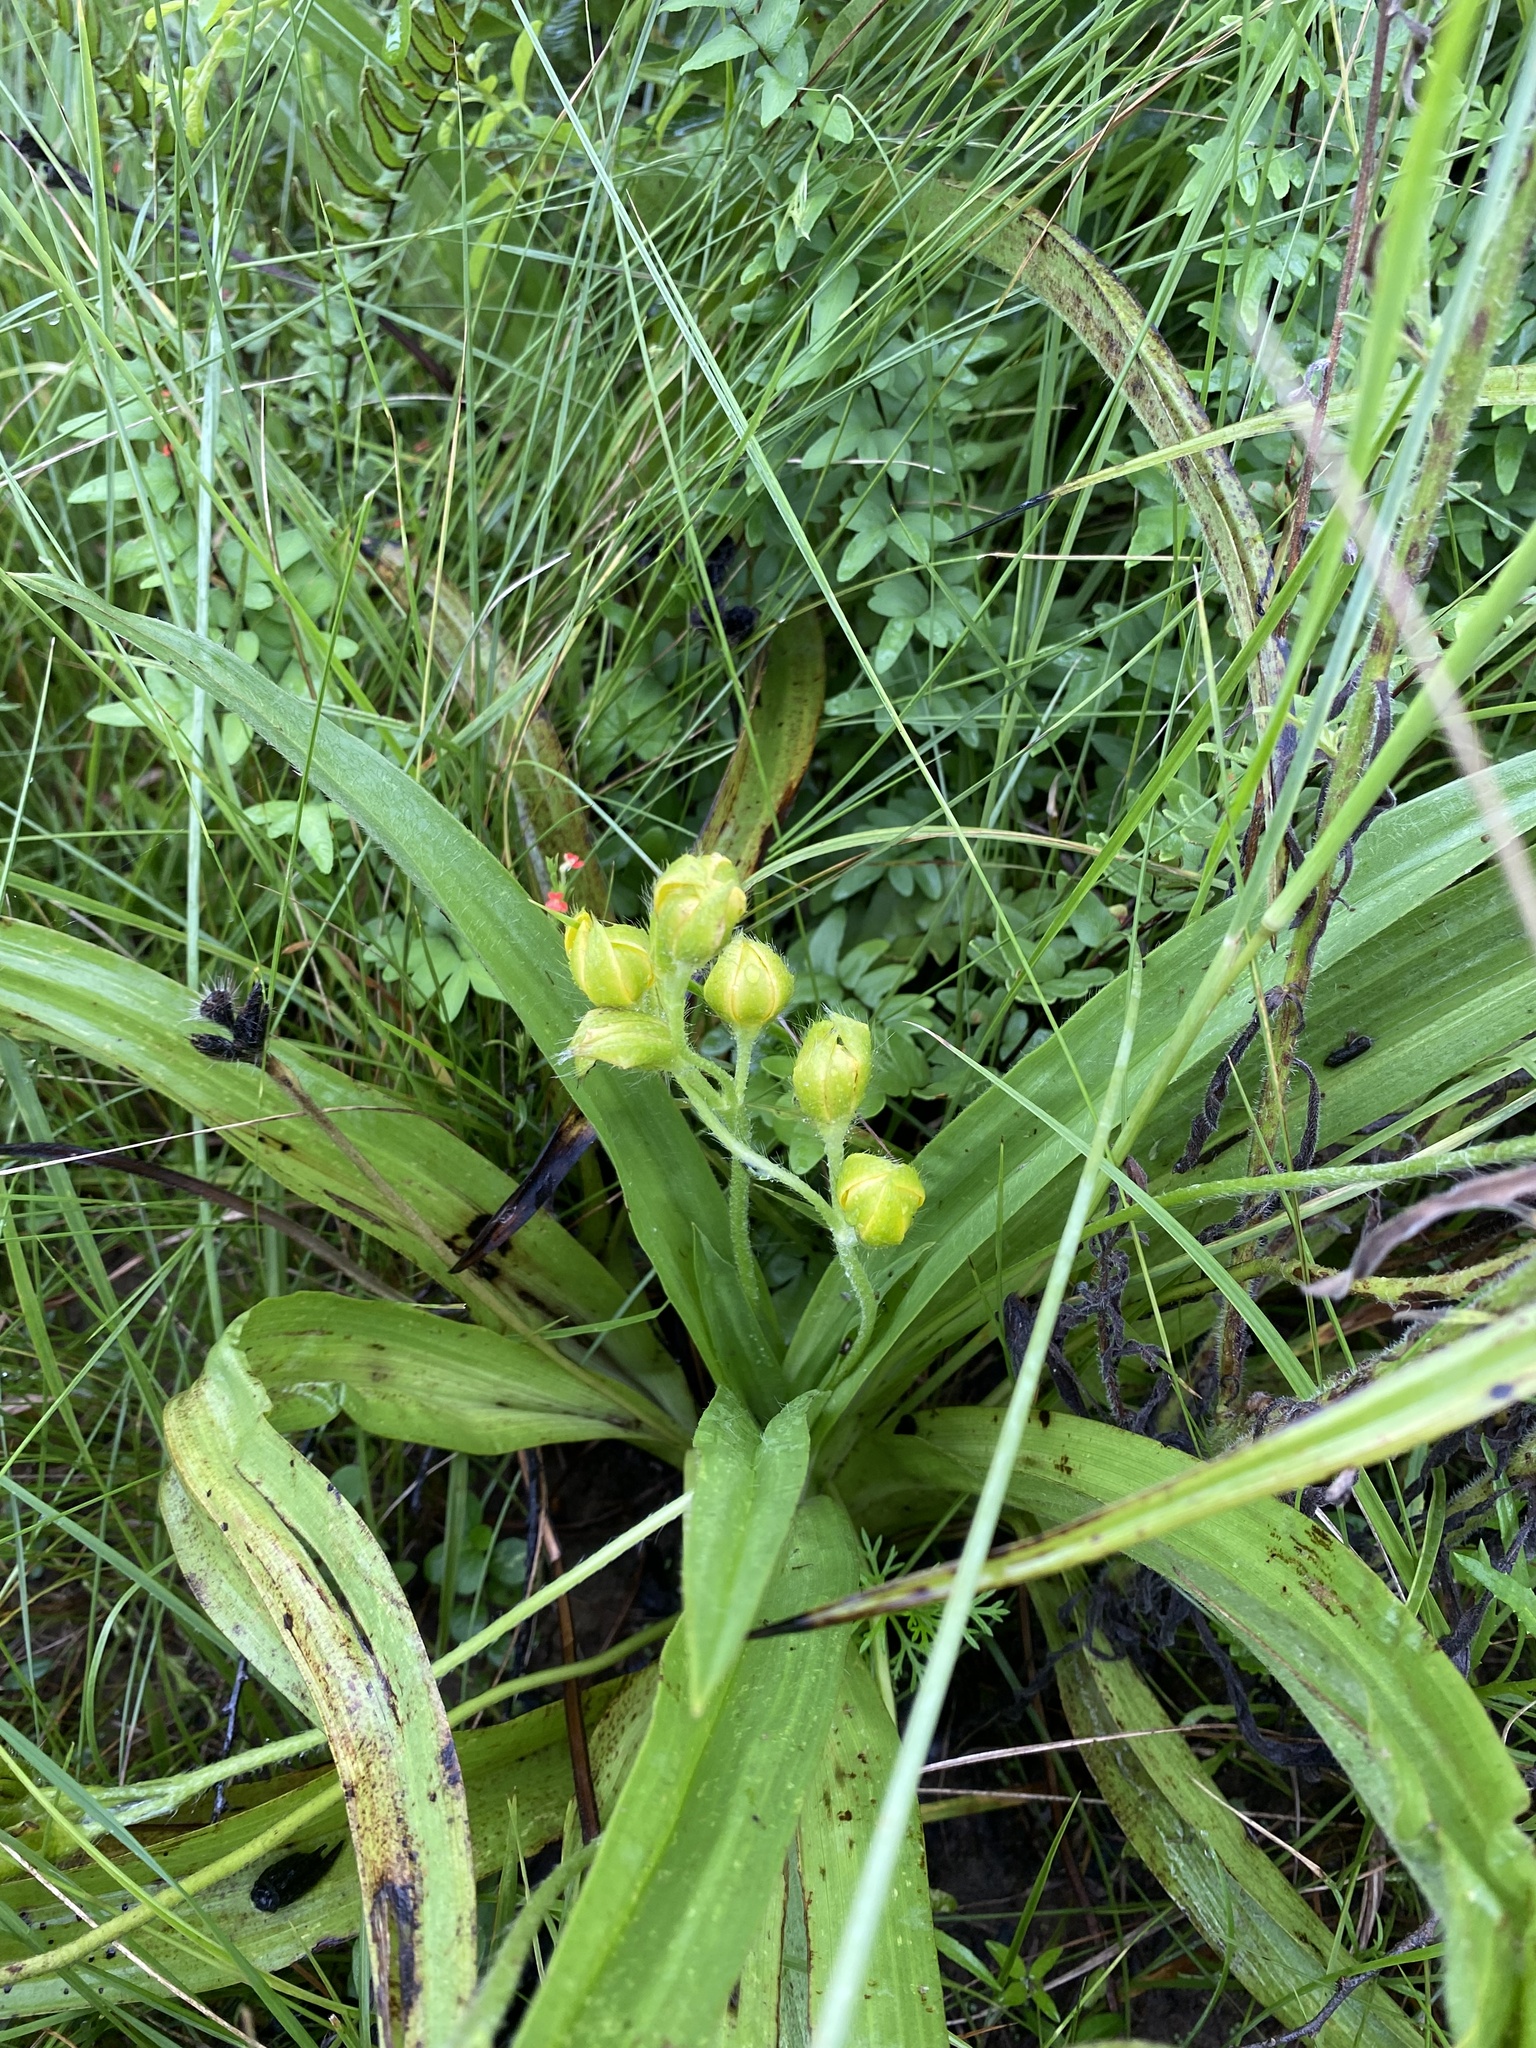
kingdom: Plantae
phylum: Tracheophyta
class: Liliopsida
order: Asparagales
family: Hypoxidaceae
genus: Hypoxis
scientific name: Hypoxis hemerocallidea
